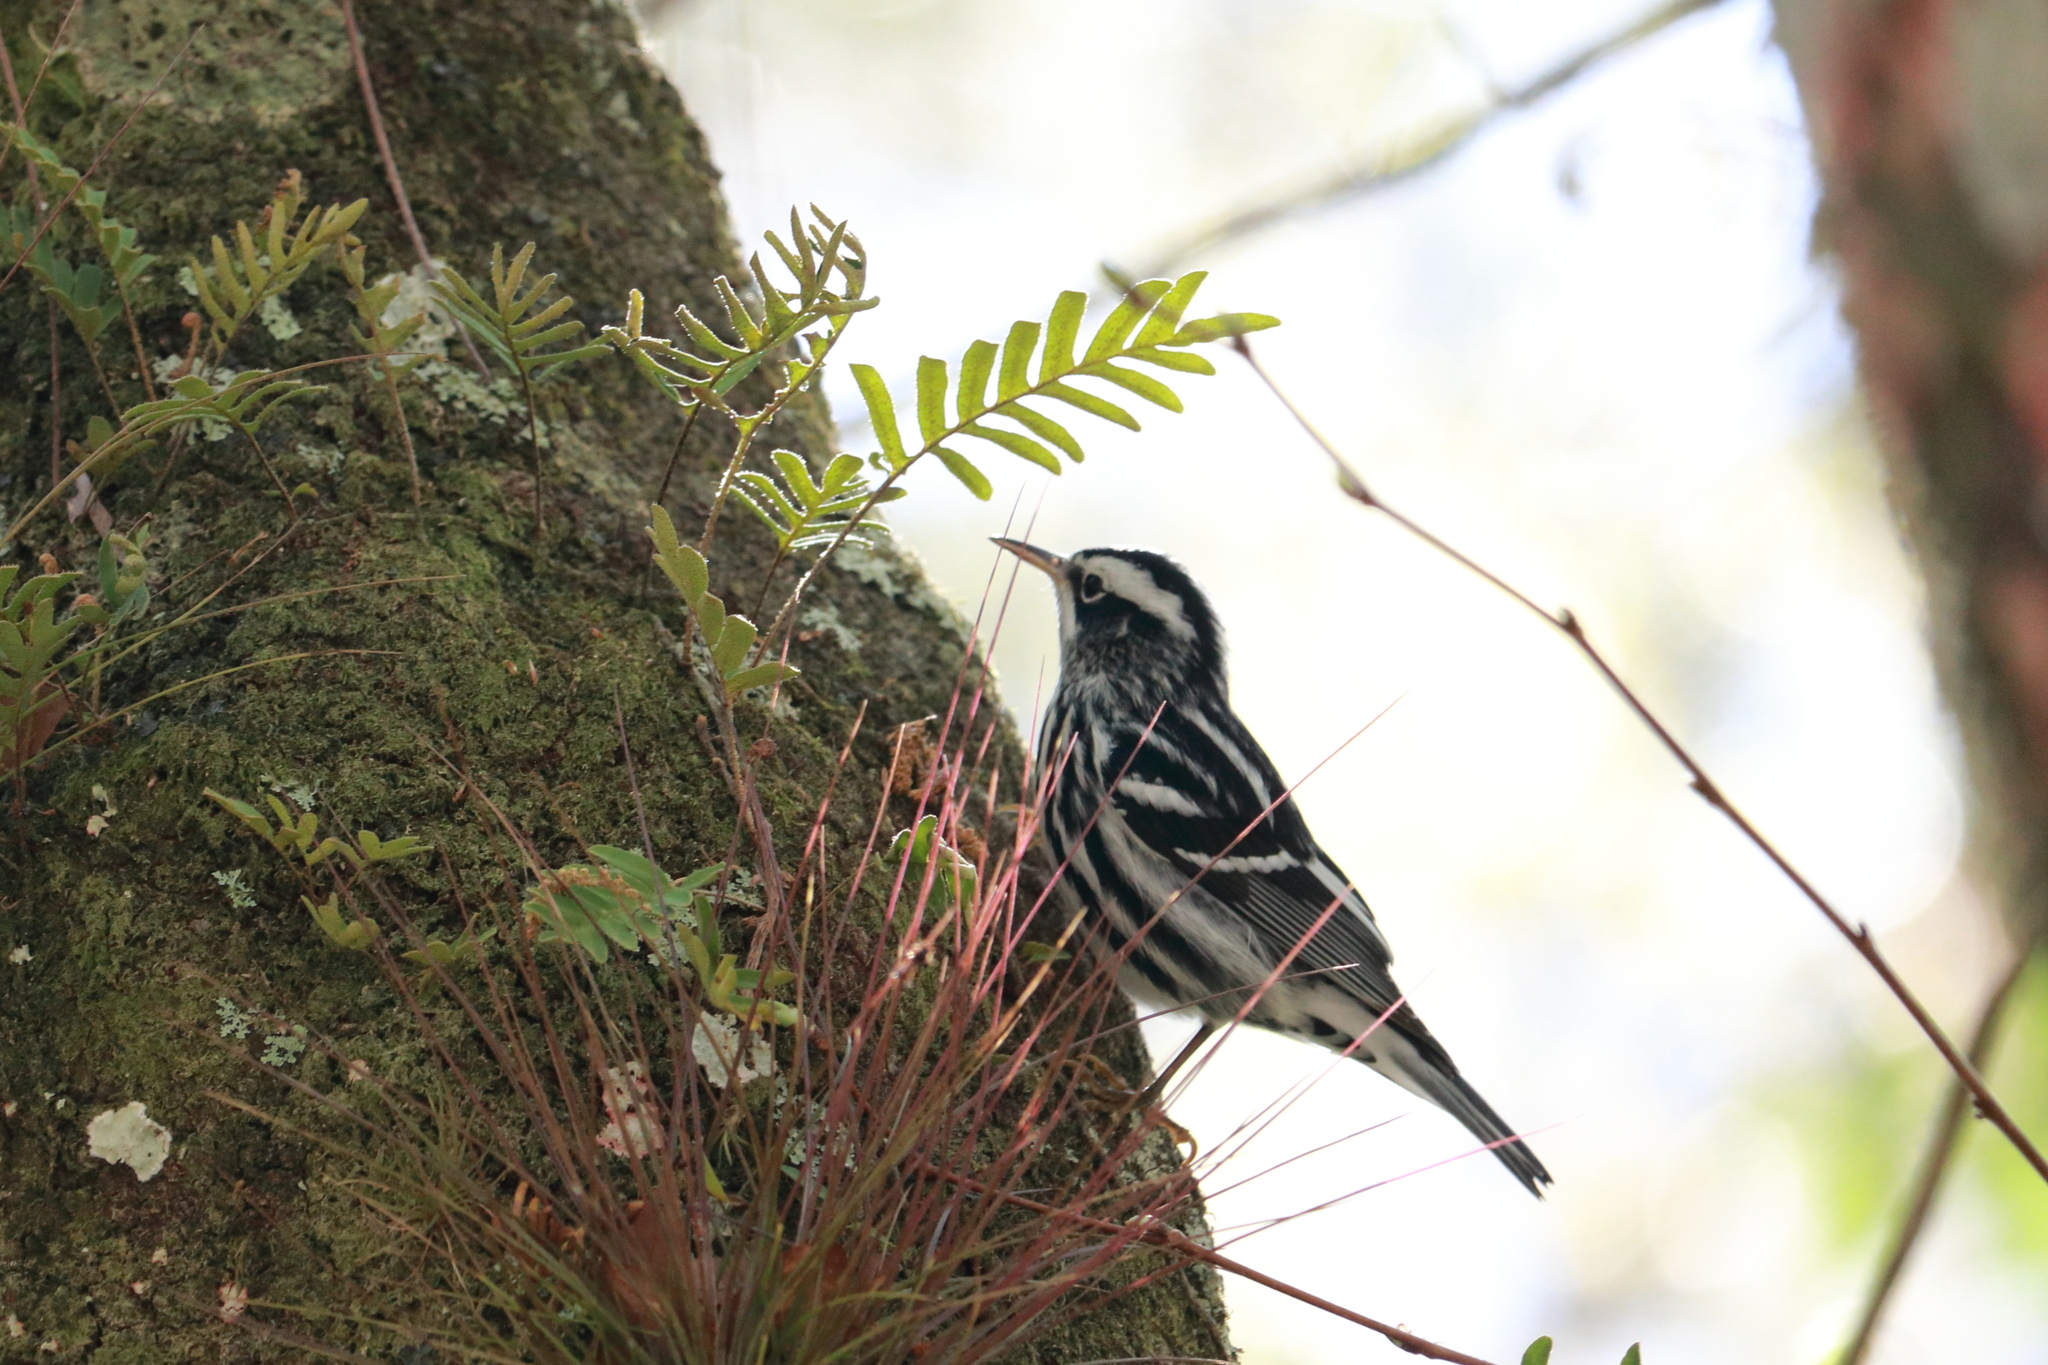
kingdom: Animalia
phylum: Chordata
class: Aves
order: Passeriformes
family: Parulidae
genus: Mniotilta
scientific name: Mniotilta varia
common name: Black-and-white warbler
